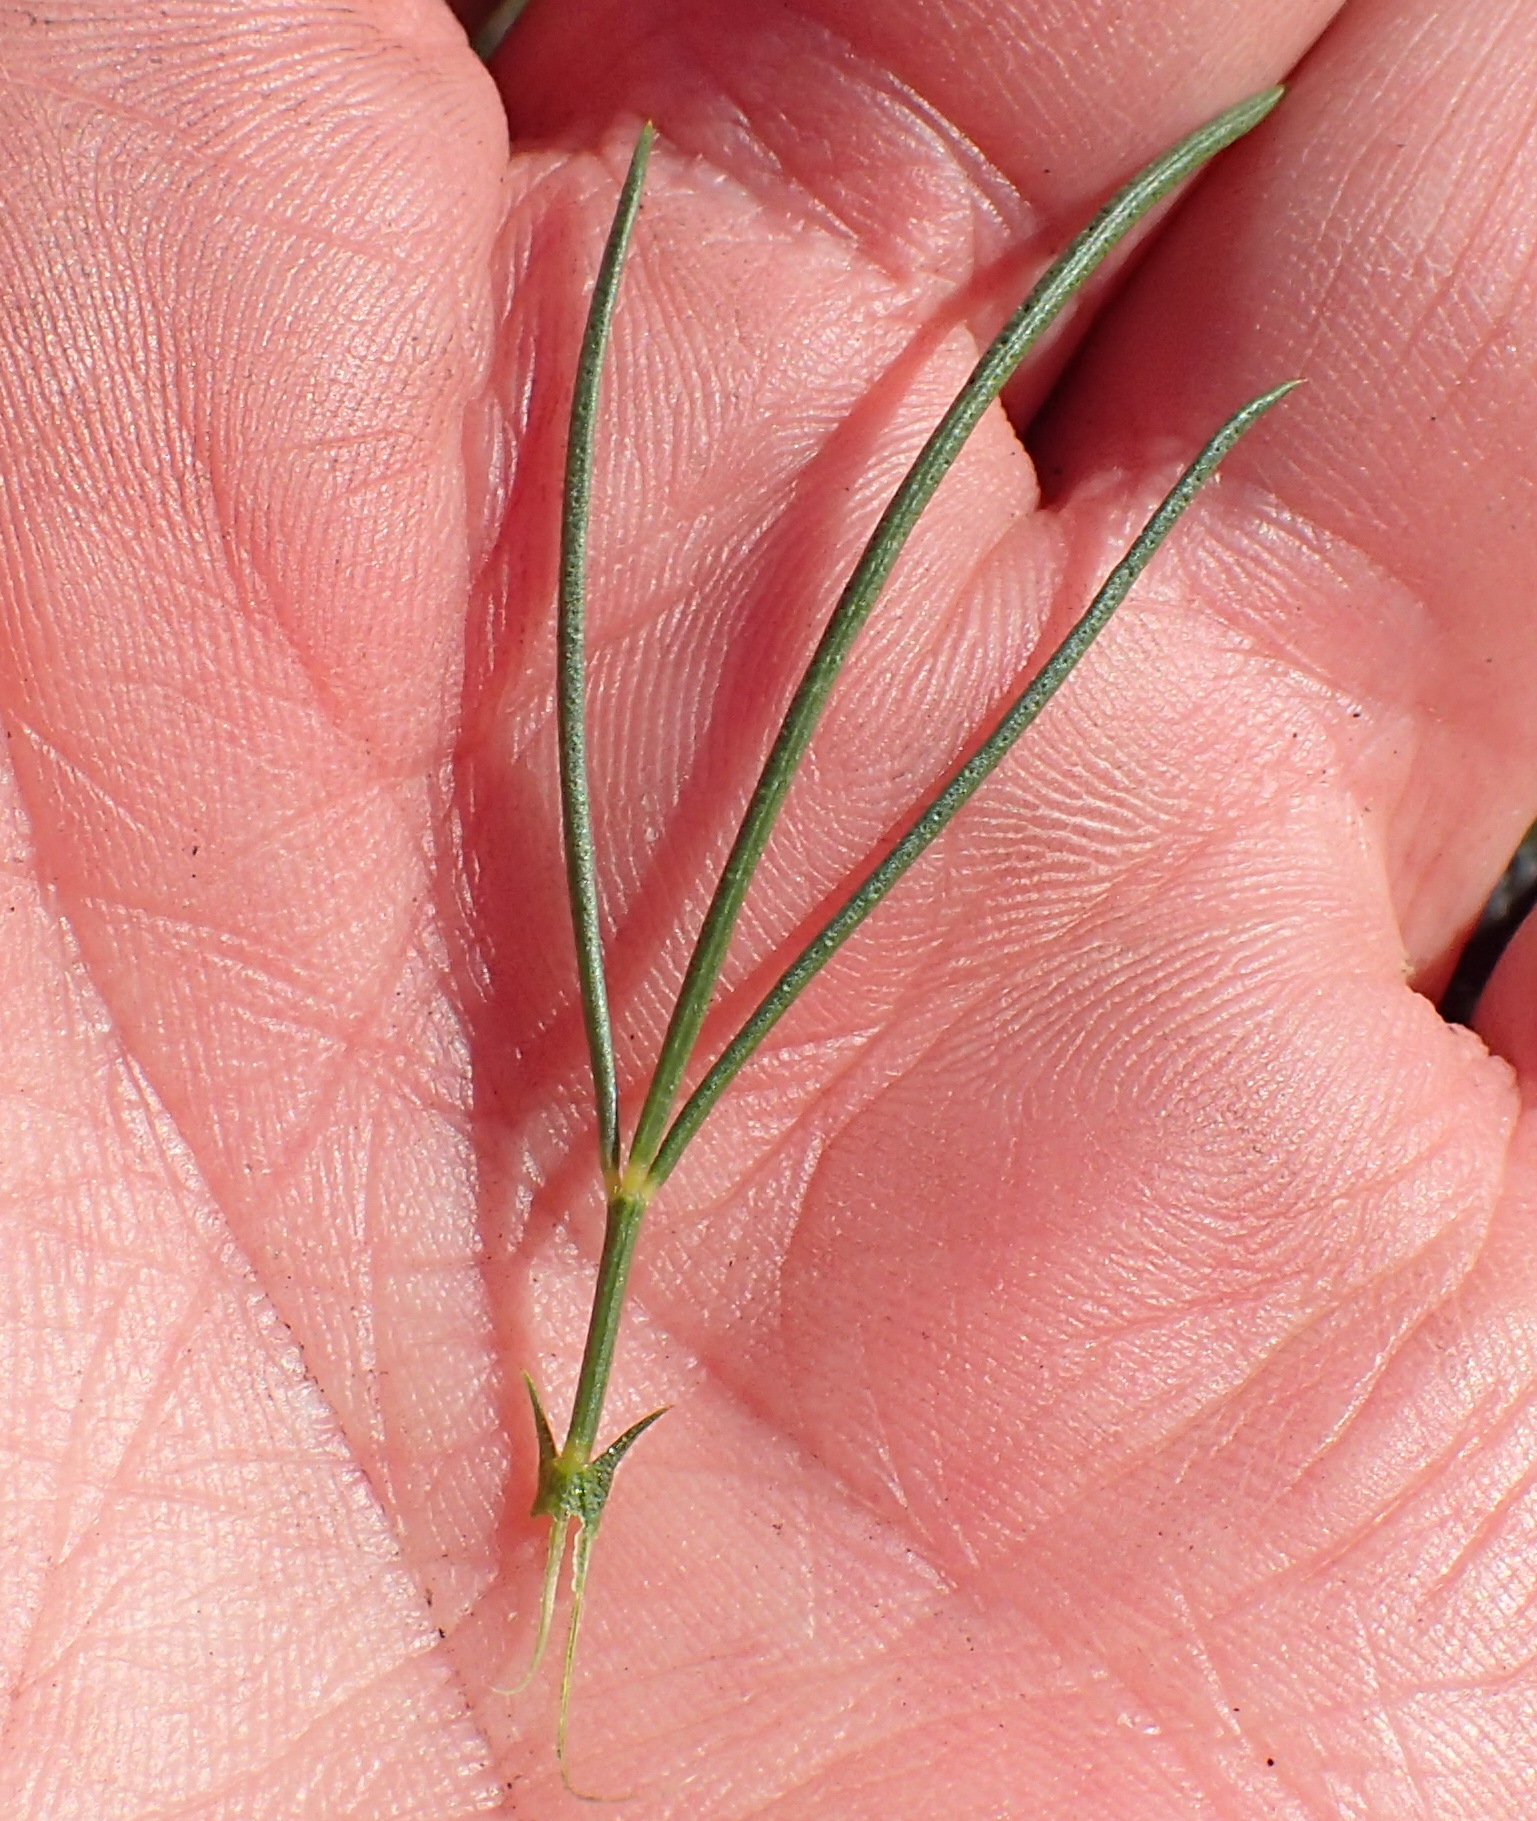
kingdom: Plantae
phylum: Tracheophyta
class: Magnoliopsida
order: Fabales
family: Fabaceae
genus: Psoralea
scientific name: Psoralea sordida
